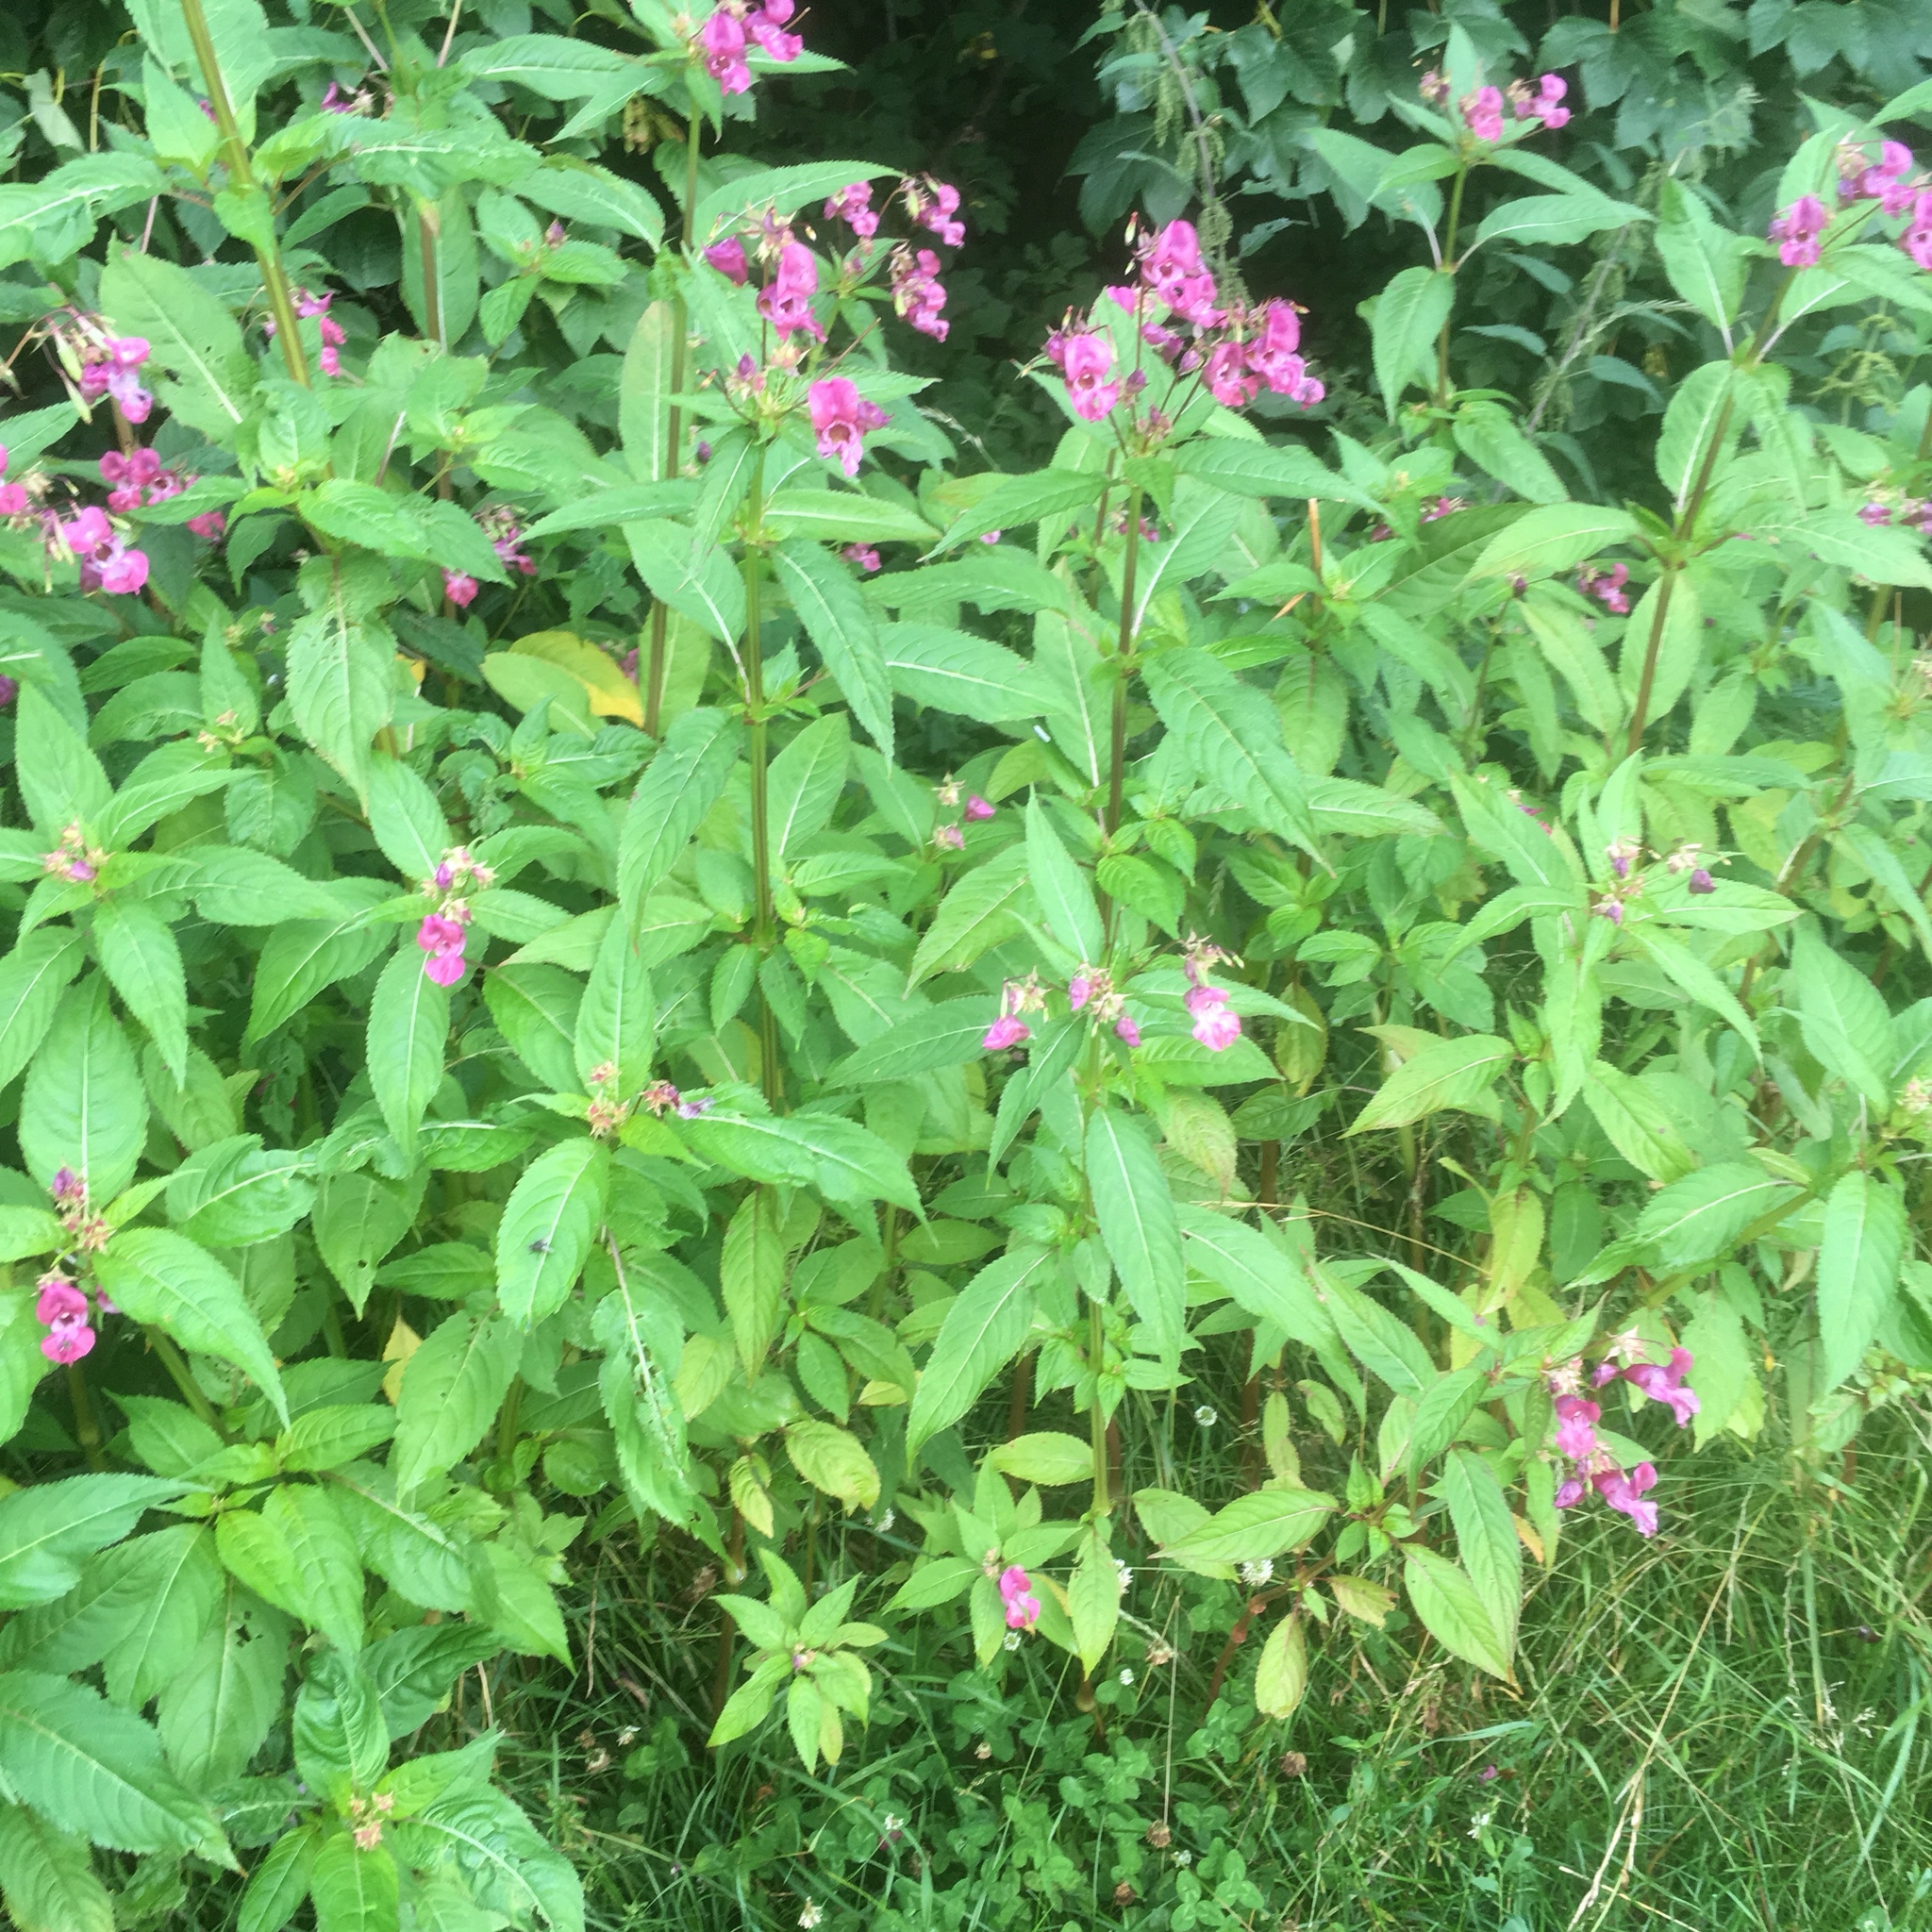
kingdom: Plantae
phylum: Tracheophyta
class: Magnoliopsida
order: Ericales
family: Balsaminaceae
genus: Impatiens
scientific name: Impatiens glandulifera
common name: Himalayan balsam
